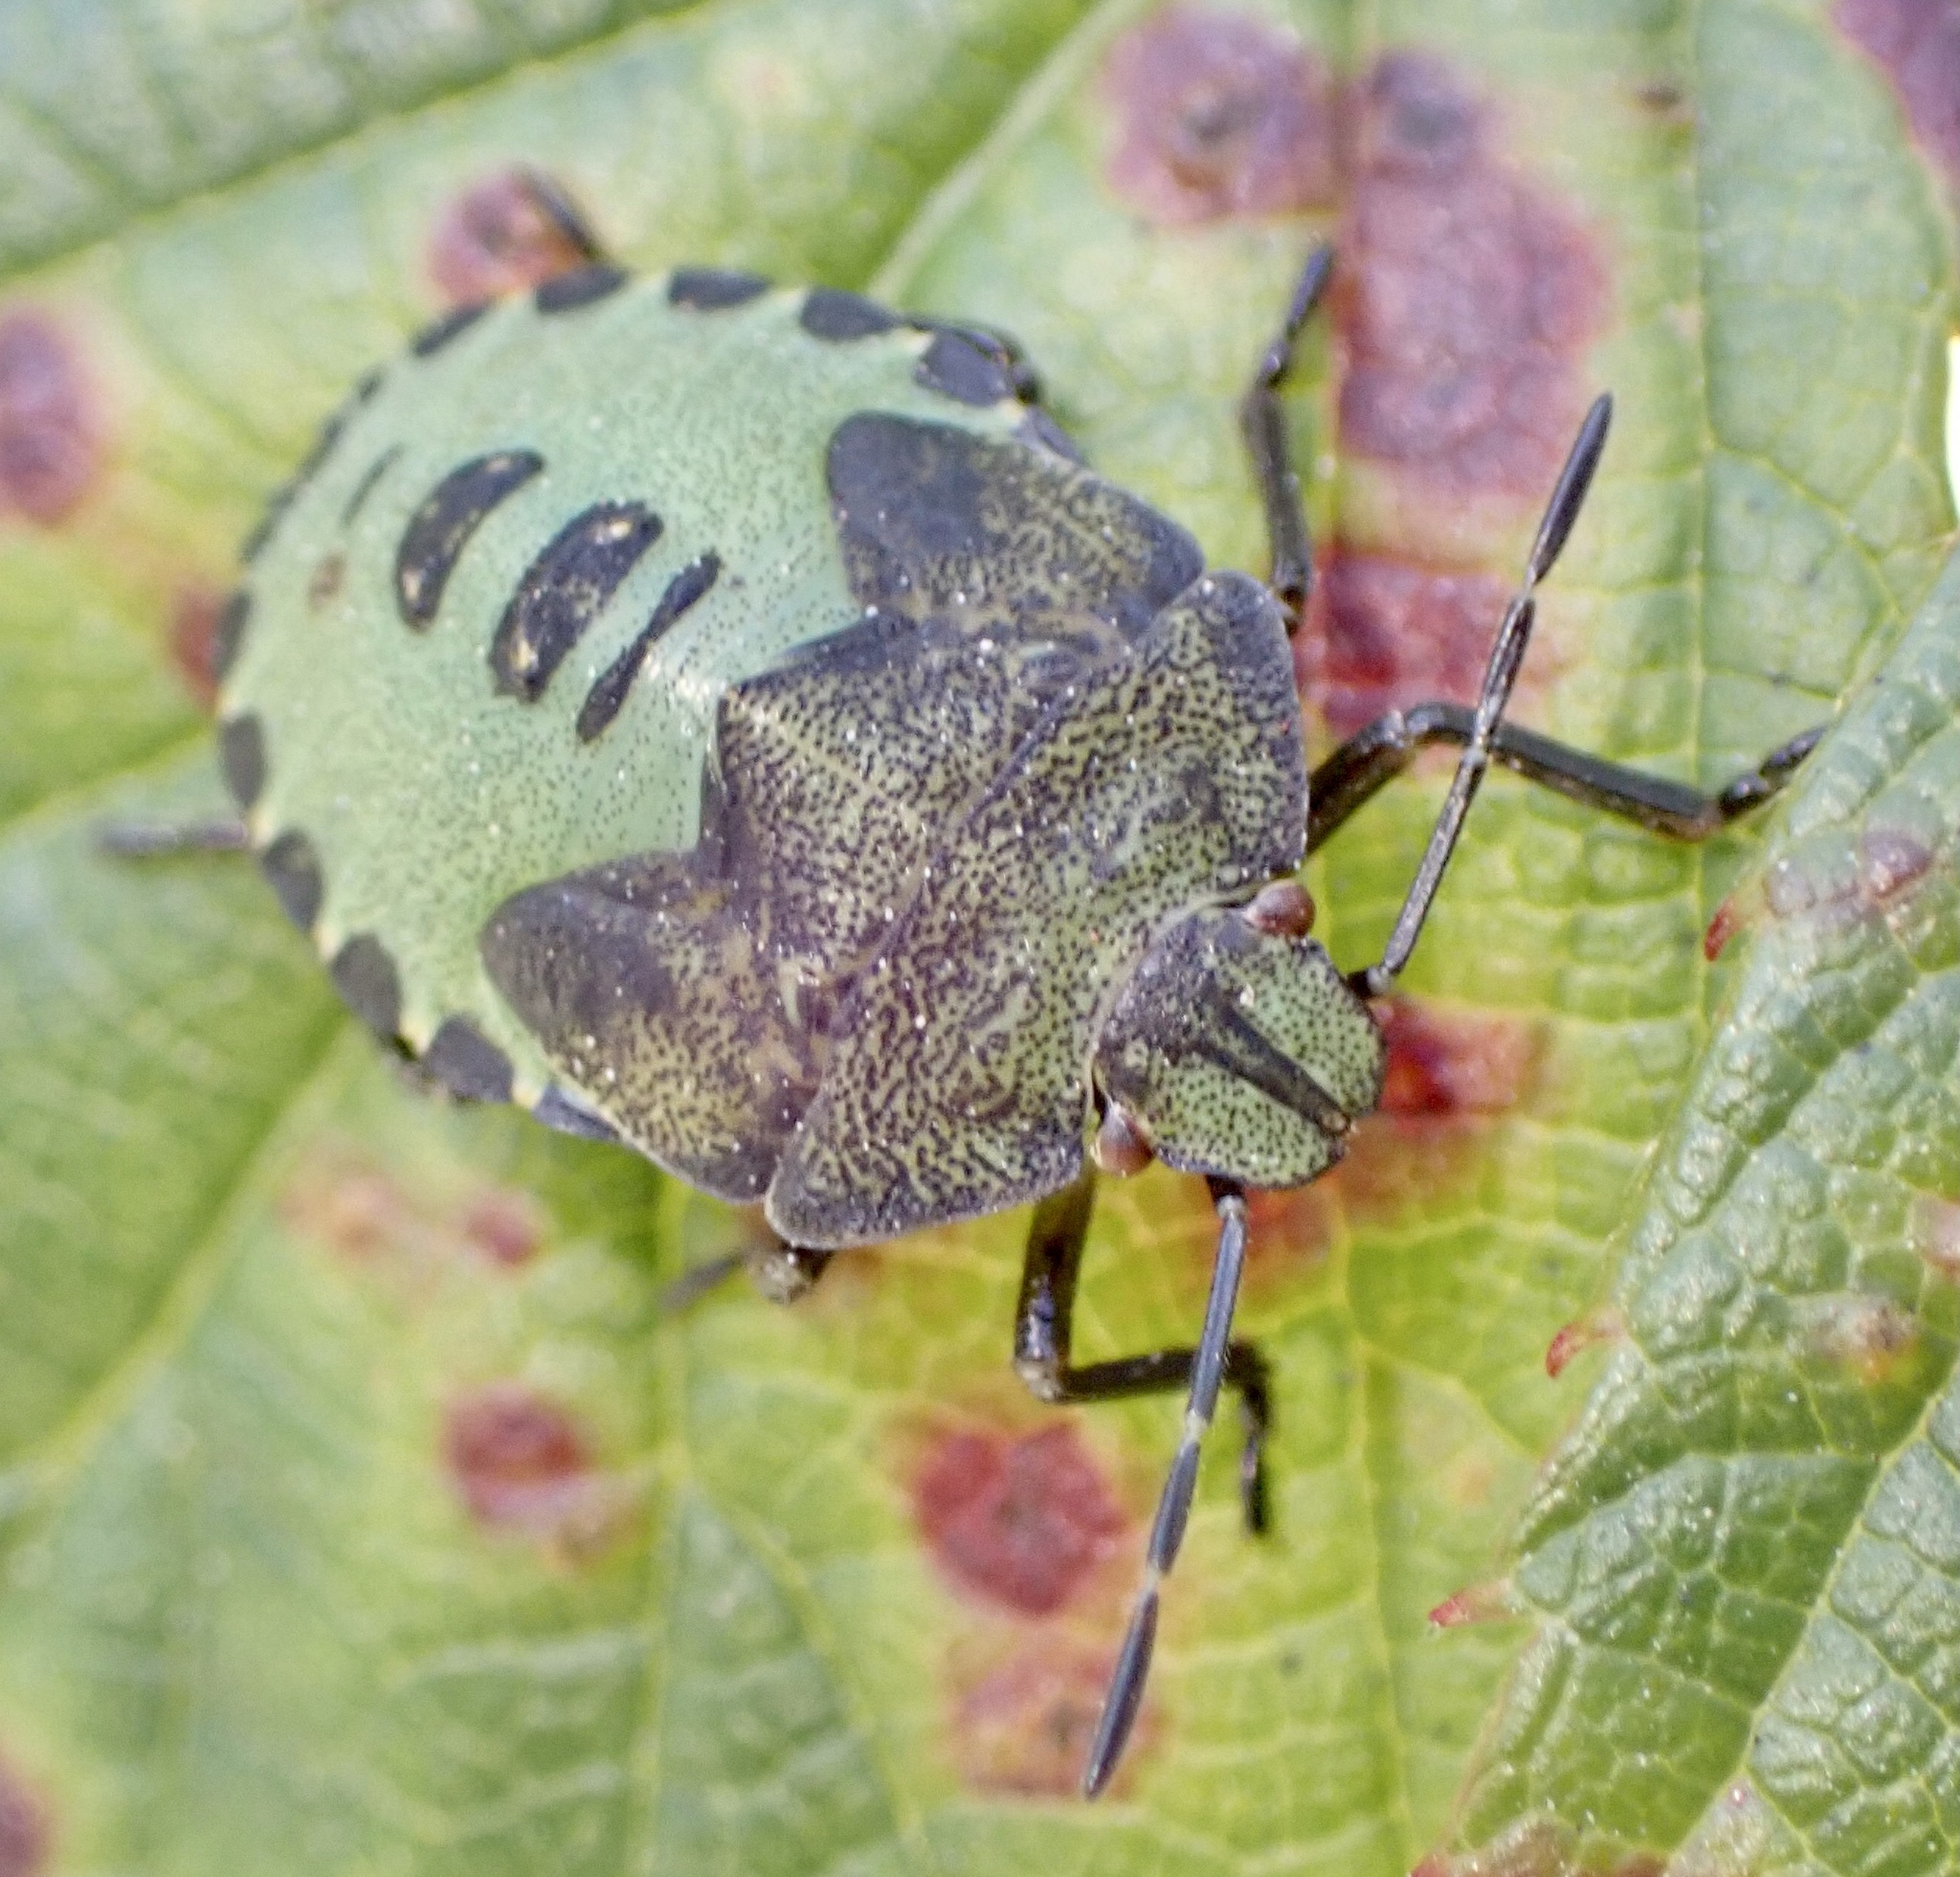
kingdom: Animalia
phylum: Arthropoda
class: Insecta
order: Hemiptera
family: Pentatomidae
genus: Palomena
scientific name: Palomena prasina
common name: Green shieldbug
